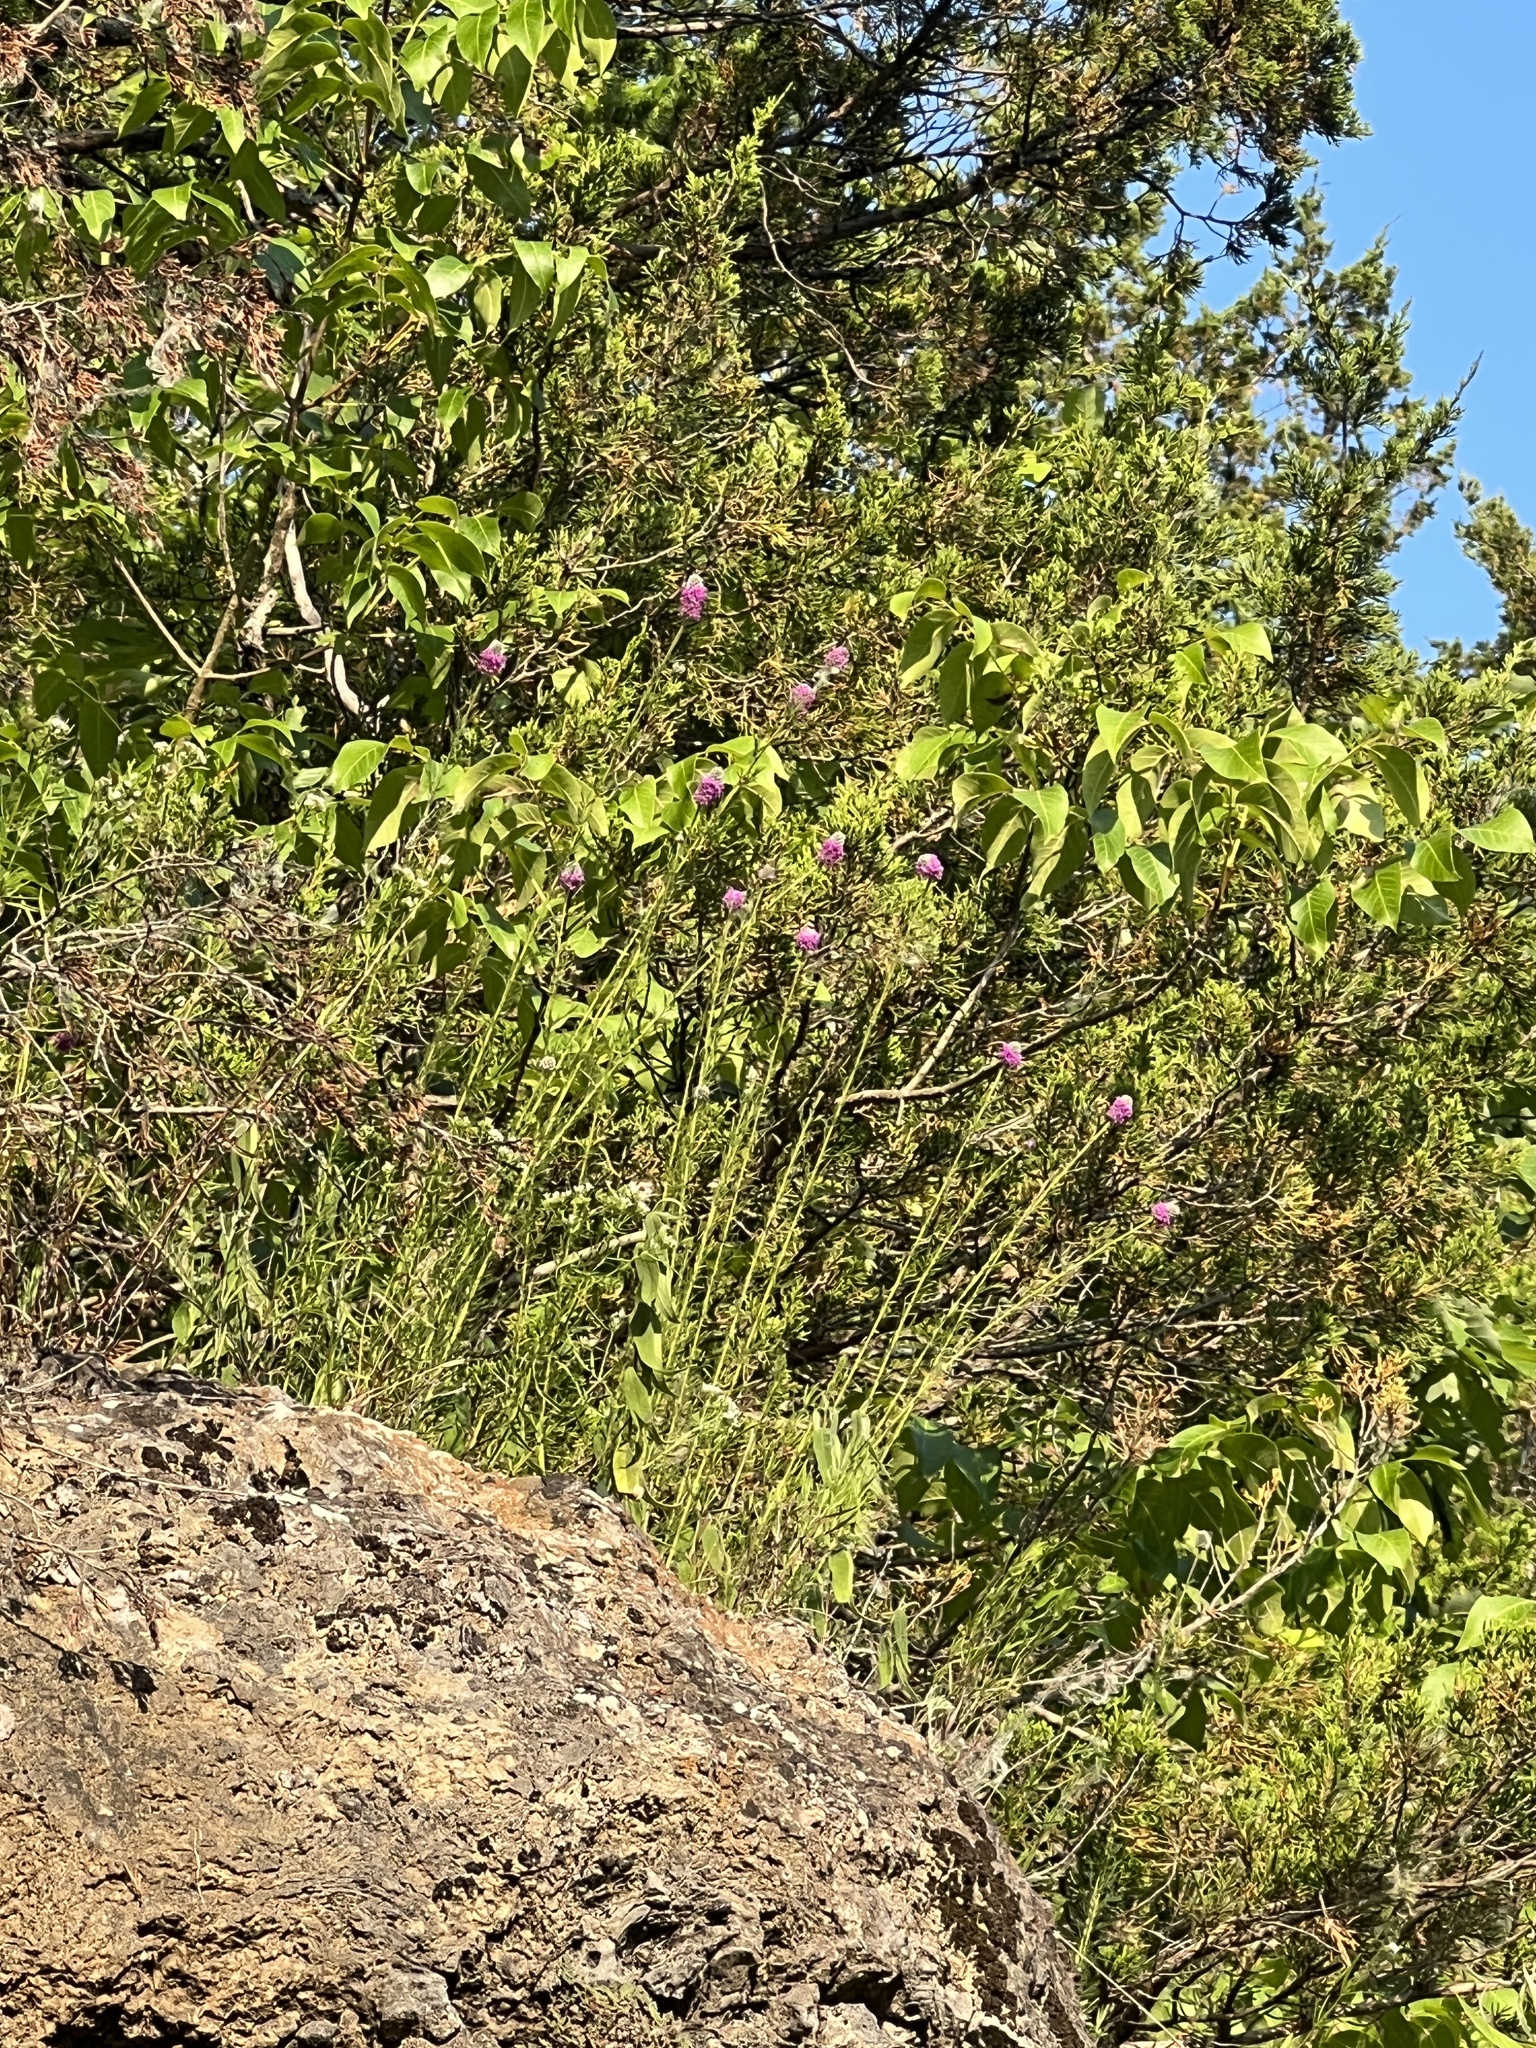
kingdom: Plantae
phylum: Tracheophyta
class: Magnoliopsida
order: Fabales
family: Fabaceae
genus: Dalea
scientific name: Dalea purpurea
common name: Purple prairie-clover
